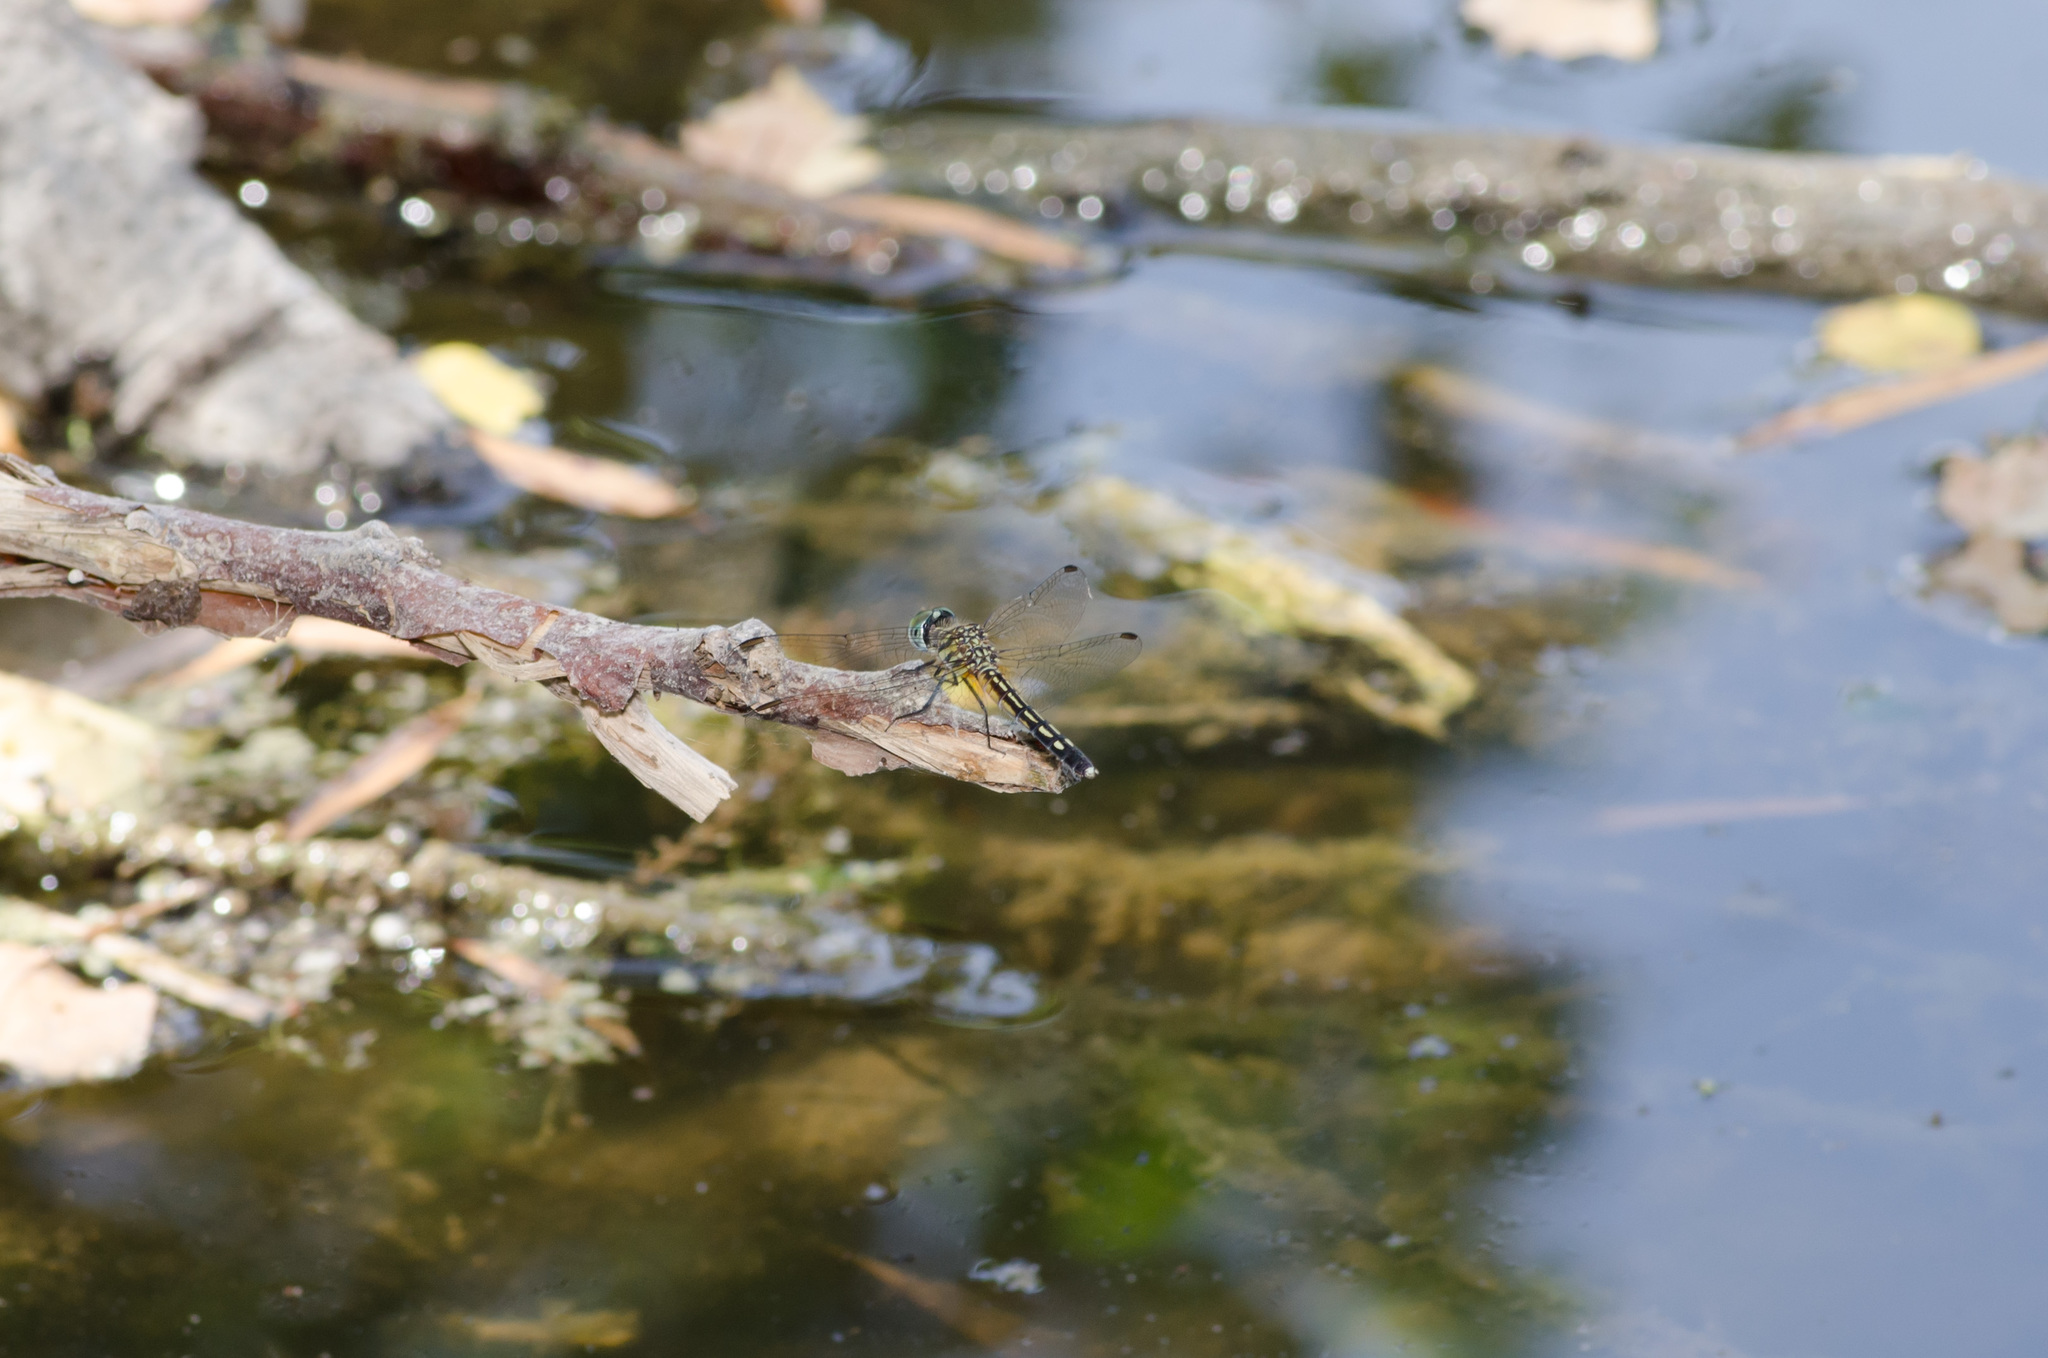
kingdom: Animalia
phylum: Arthropoda
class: Insecta
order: Odonata
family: Libellulidae
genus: Pachydiplax
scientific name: Pachydiplax longipennis
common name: Blue dasher
